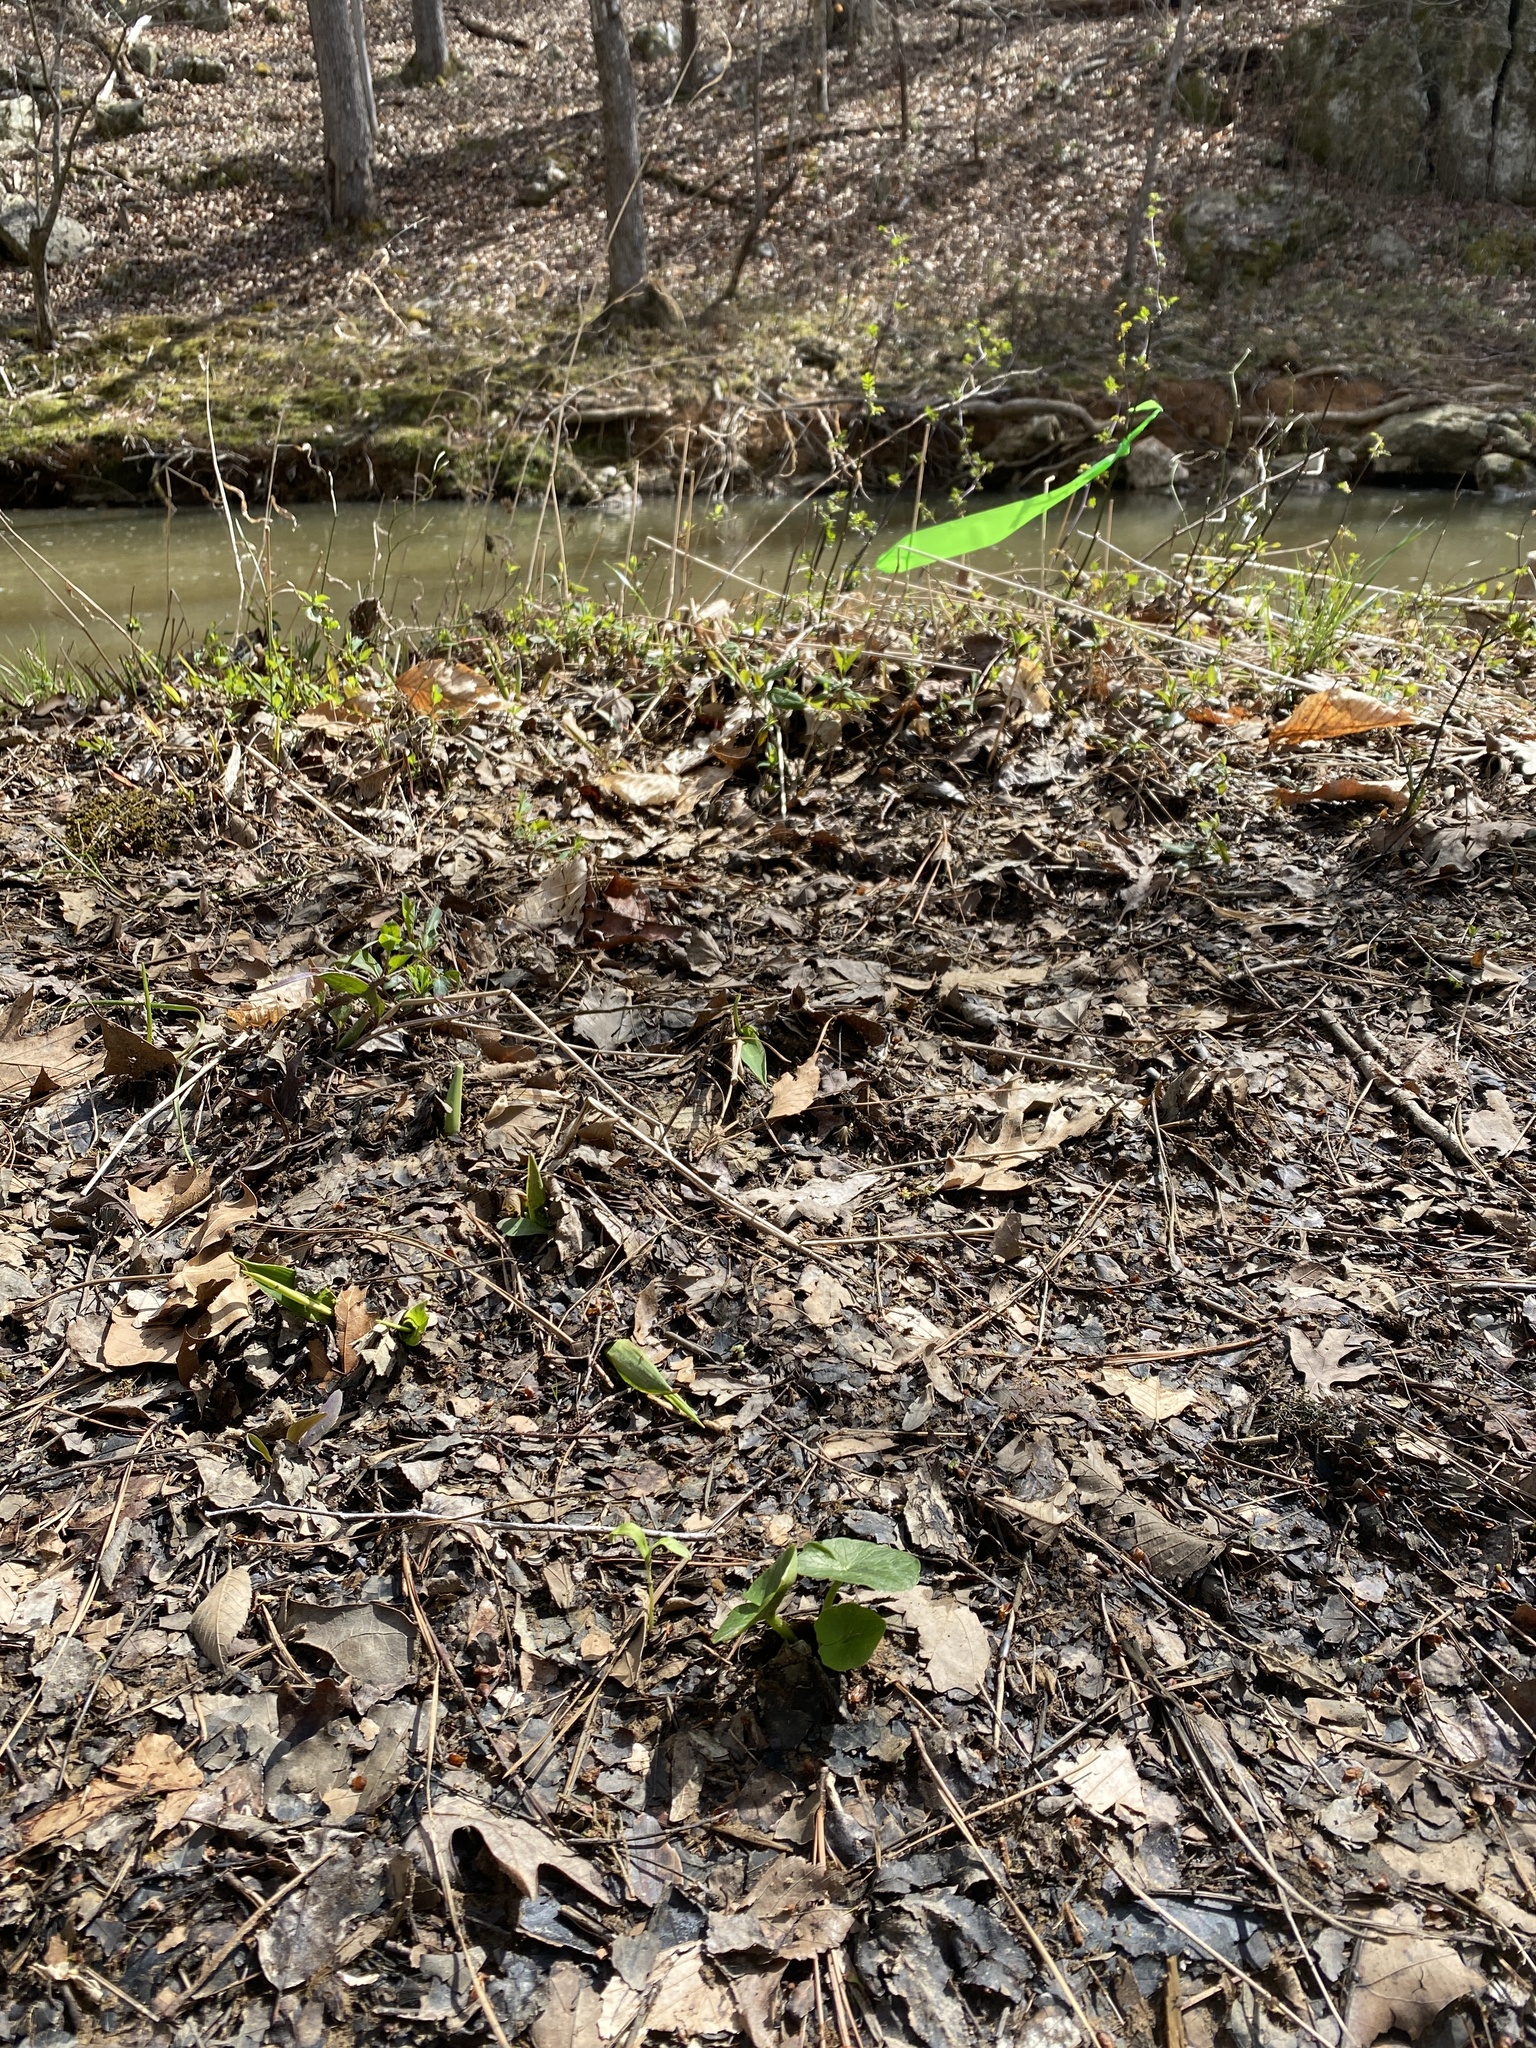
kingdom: Plantae
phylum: Tracheophyta
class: Magnoliopsida
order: Ranunculales
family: Ranunculaceae
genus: Ficaria
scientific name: Ficaria verna
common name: Lesser celandine
